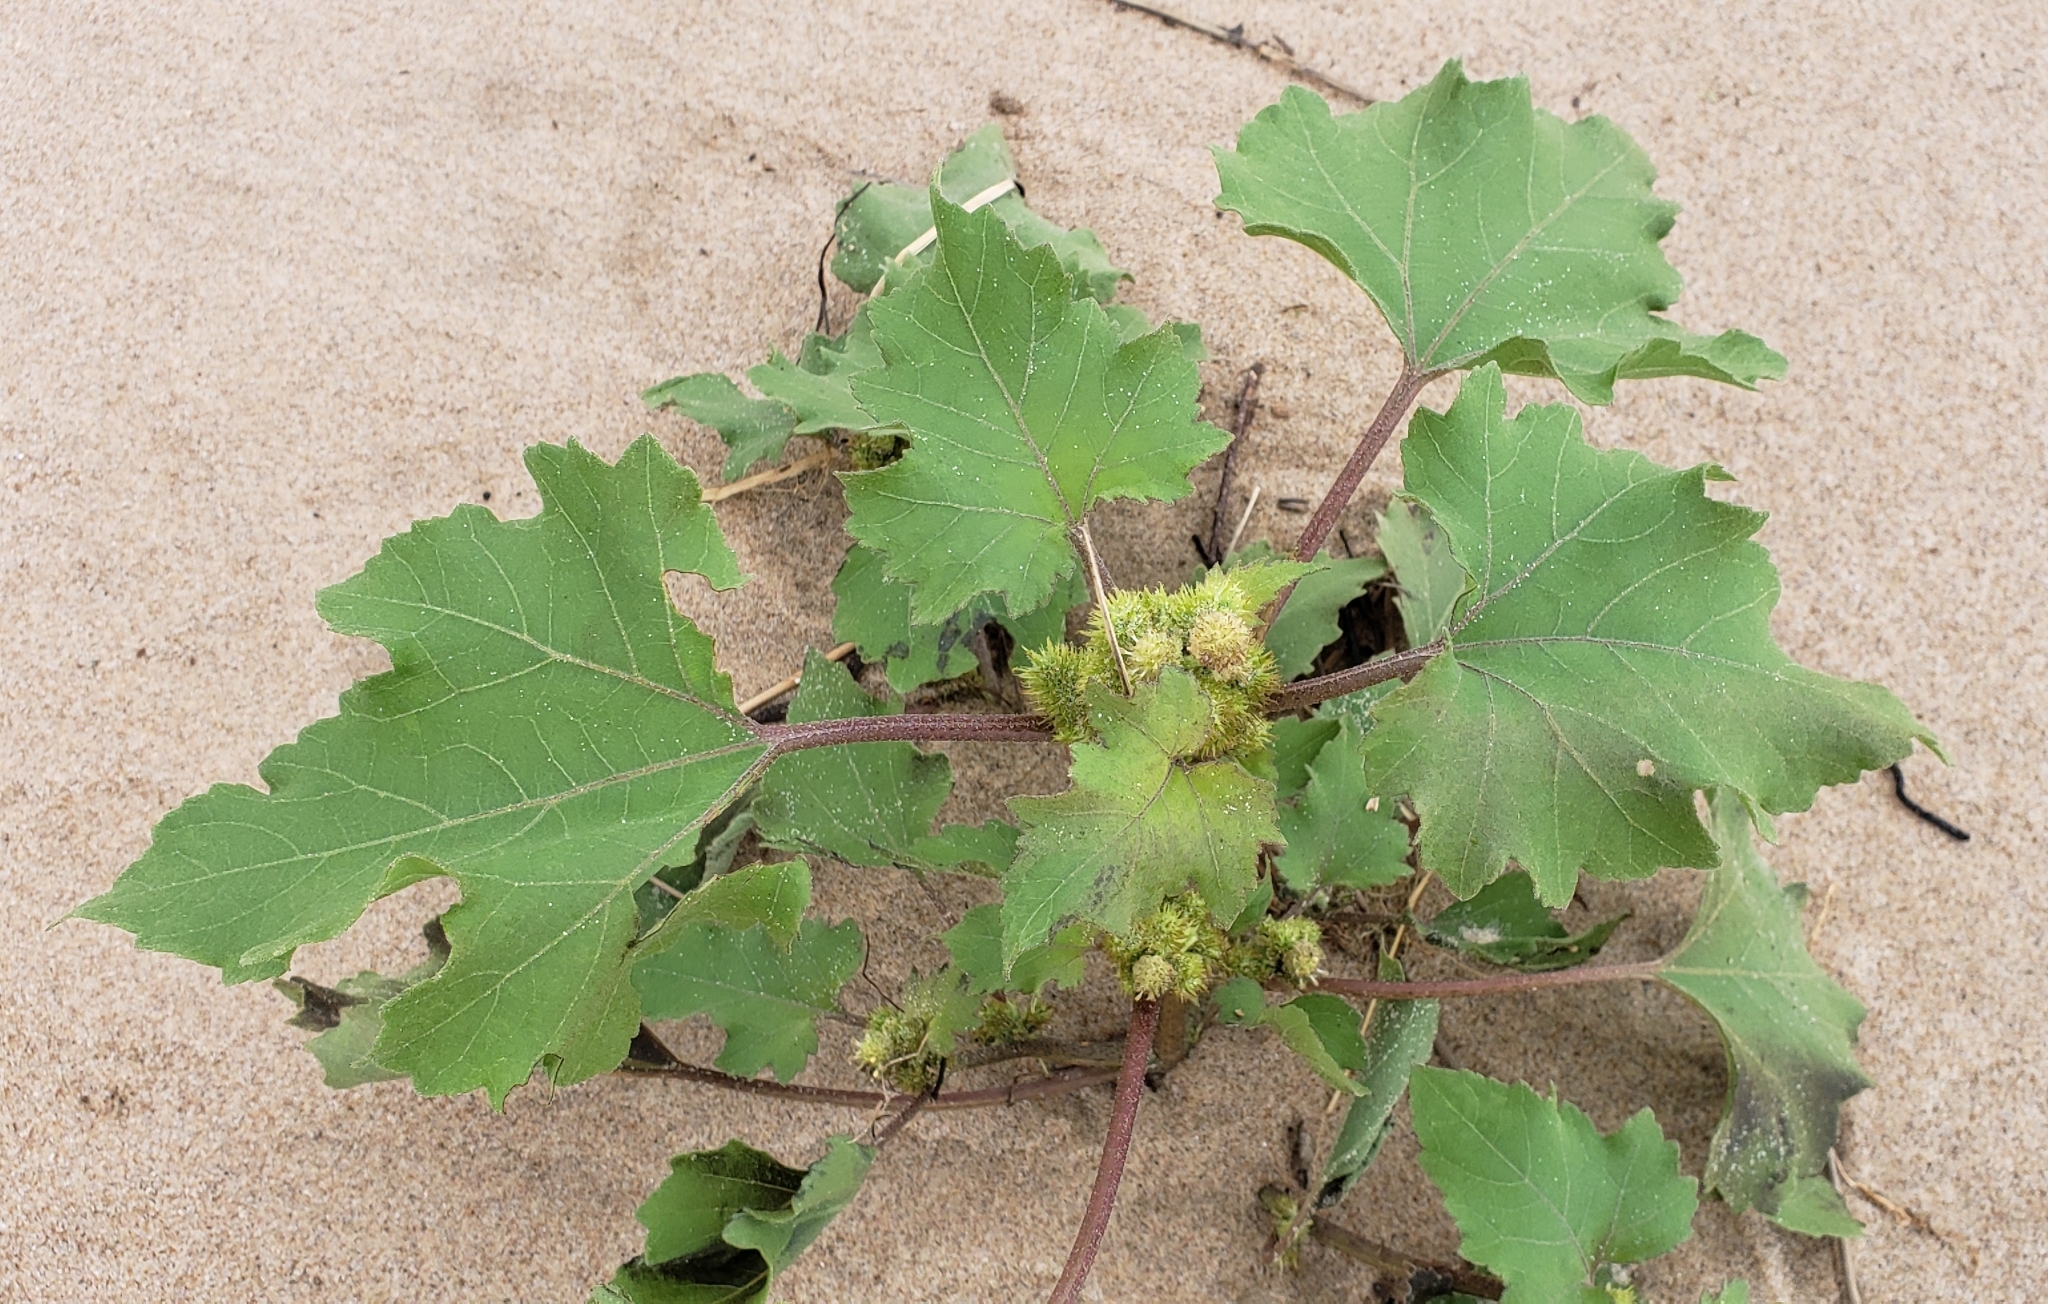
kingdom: Plantae
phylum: Tracheophyta
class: Magnoliopsida
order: Asterales
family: Asteraceae
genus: Xanthium
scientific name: Xanthium strumarium
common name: Rough cocklebur
